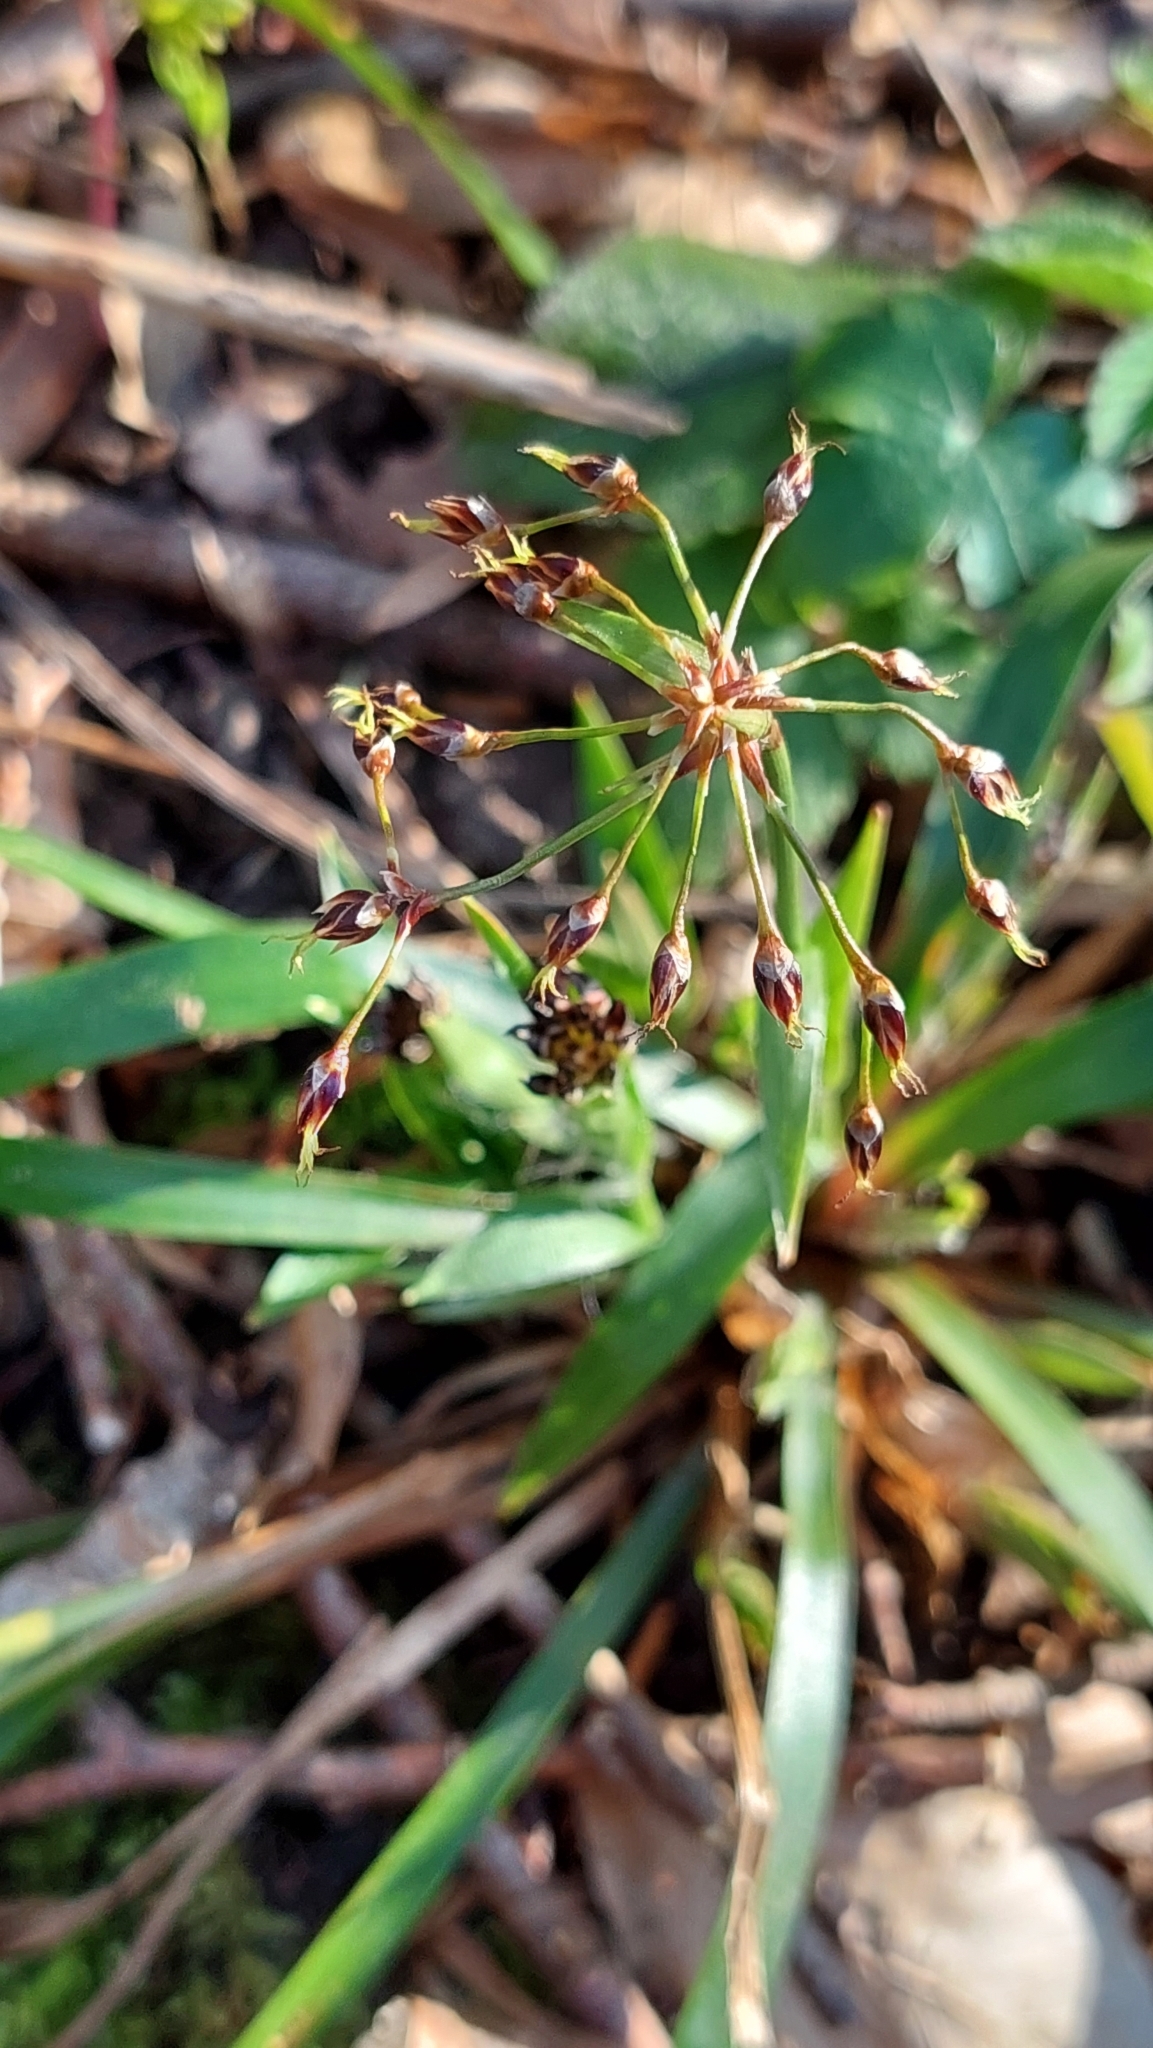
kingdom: Plantae
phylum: Tracheophyta
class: Liliopsida
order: Poales
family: Juncaceae
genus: Luzula
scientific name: Luzula forsteri
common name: Southern wood-rush
